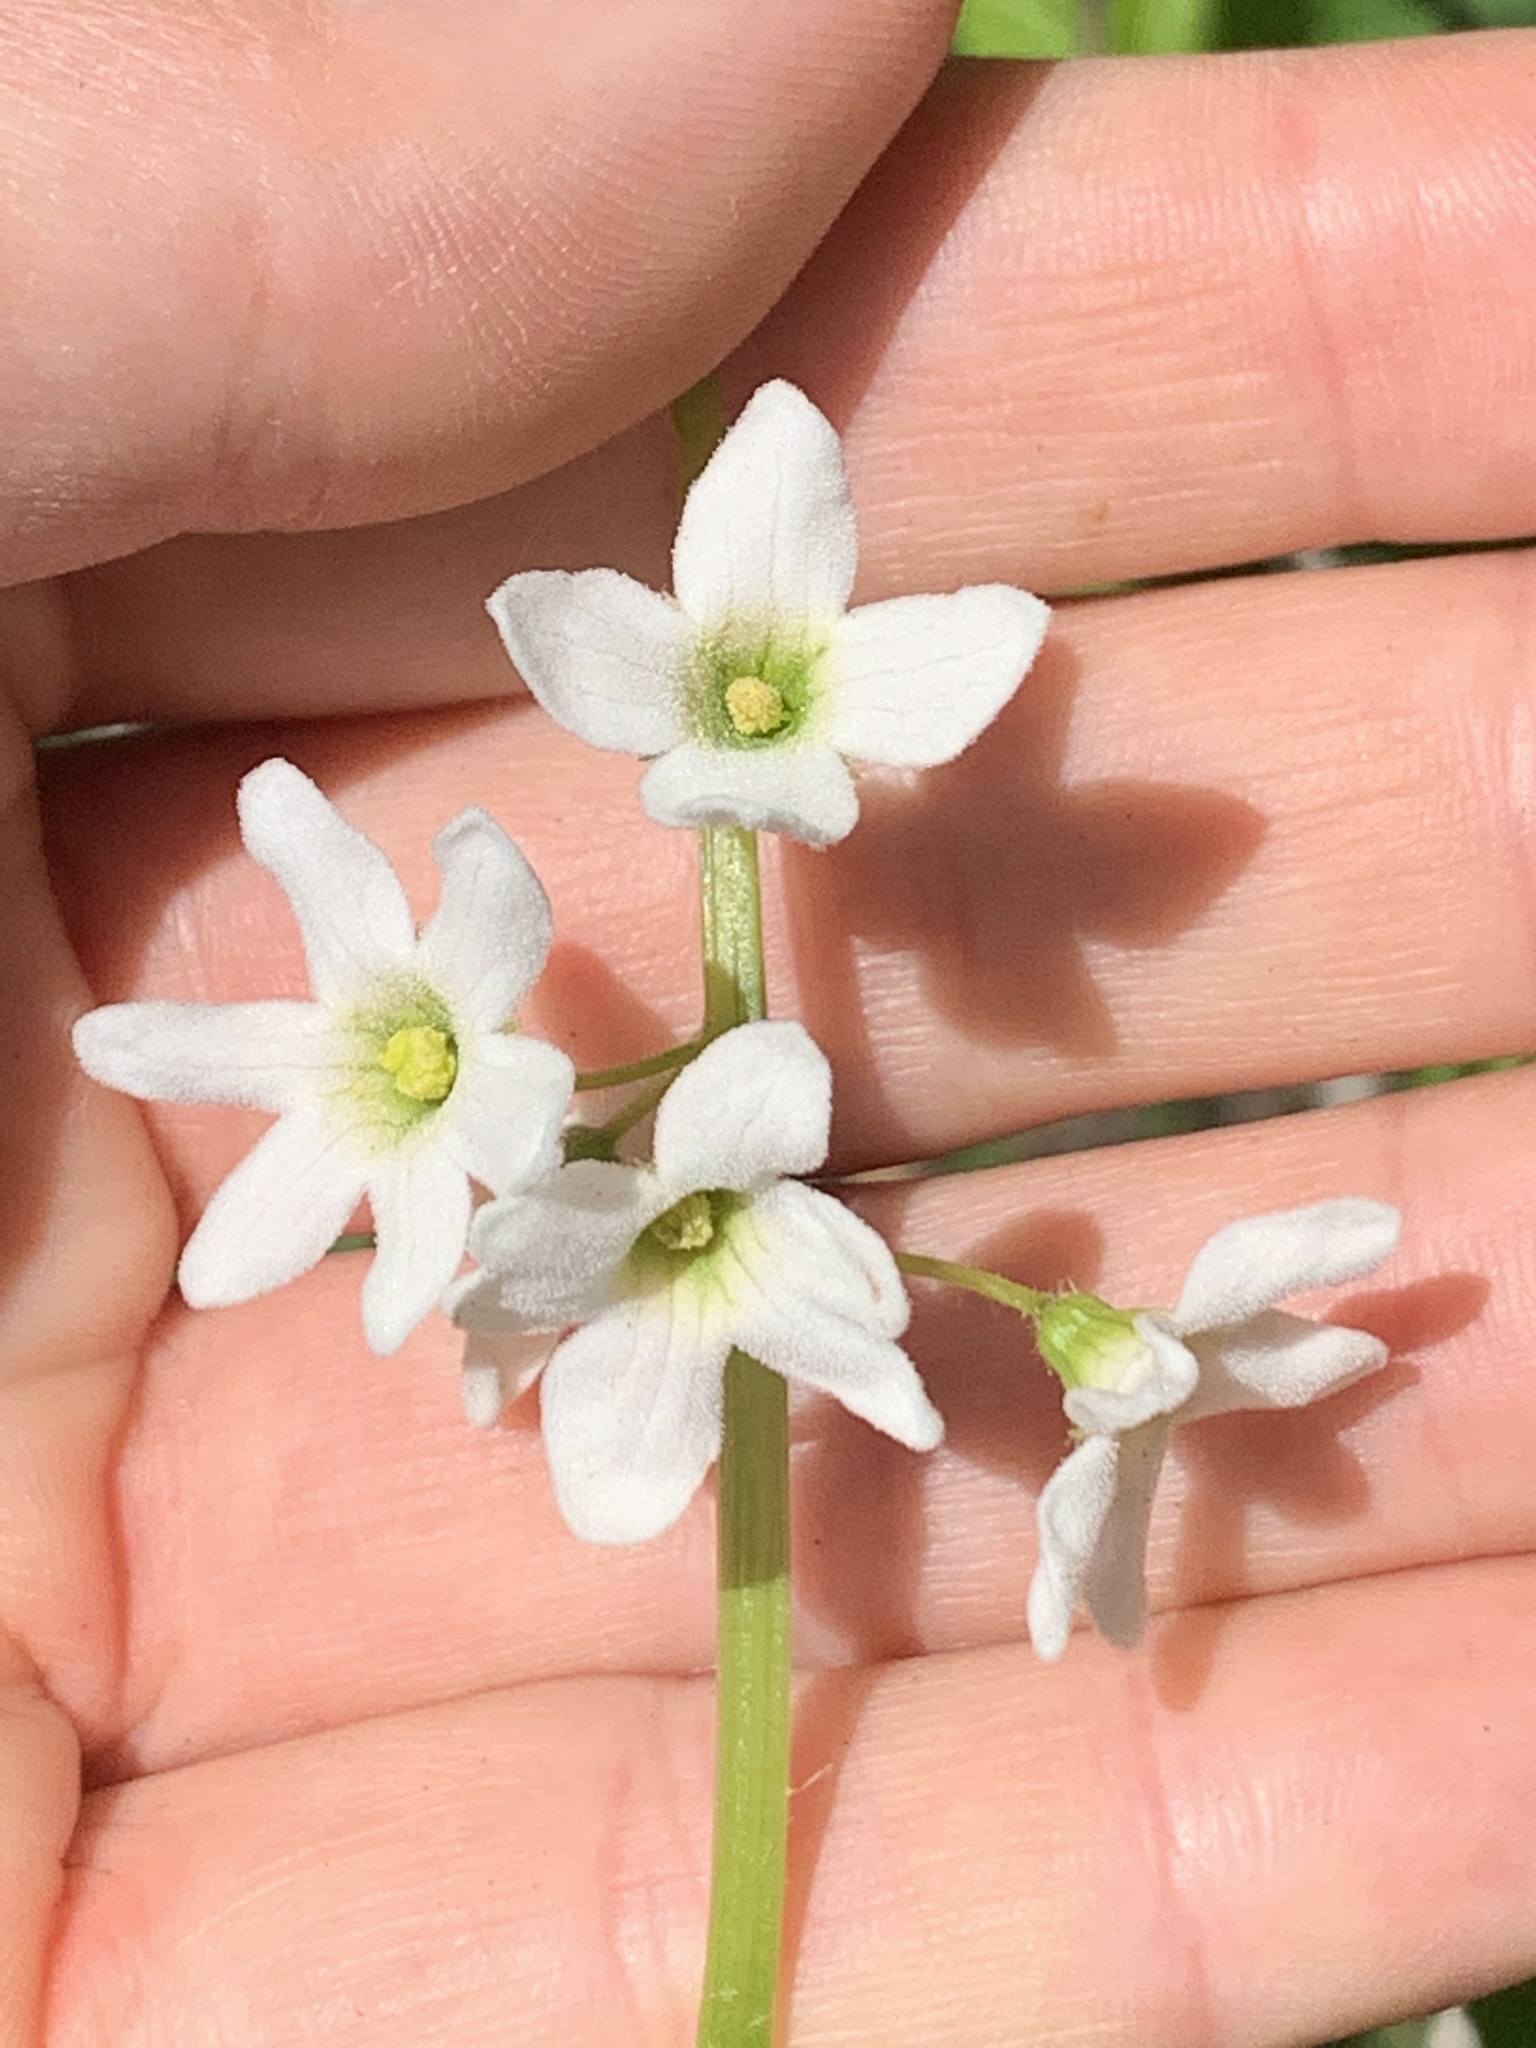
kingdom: Plantae
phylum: Tracheophyta
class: Magnoliopsida
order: Cucurbitales
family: Cucurbitaceae
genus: Marah
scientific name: Marah oregana
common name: Coastal manroot
